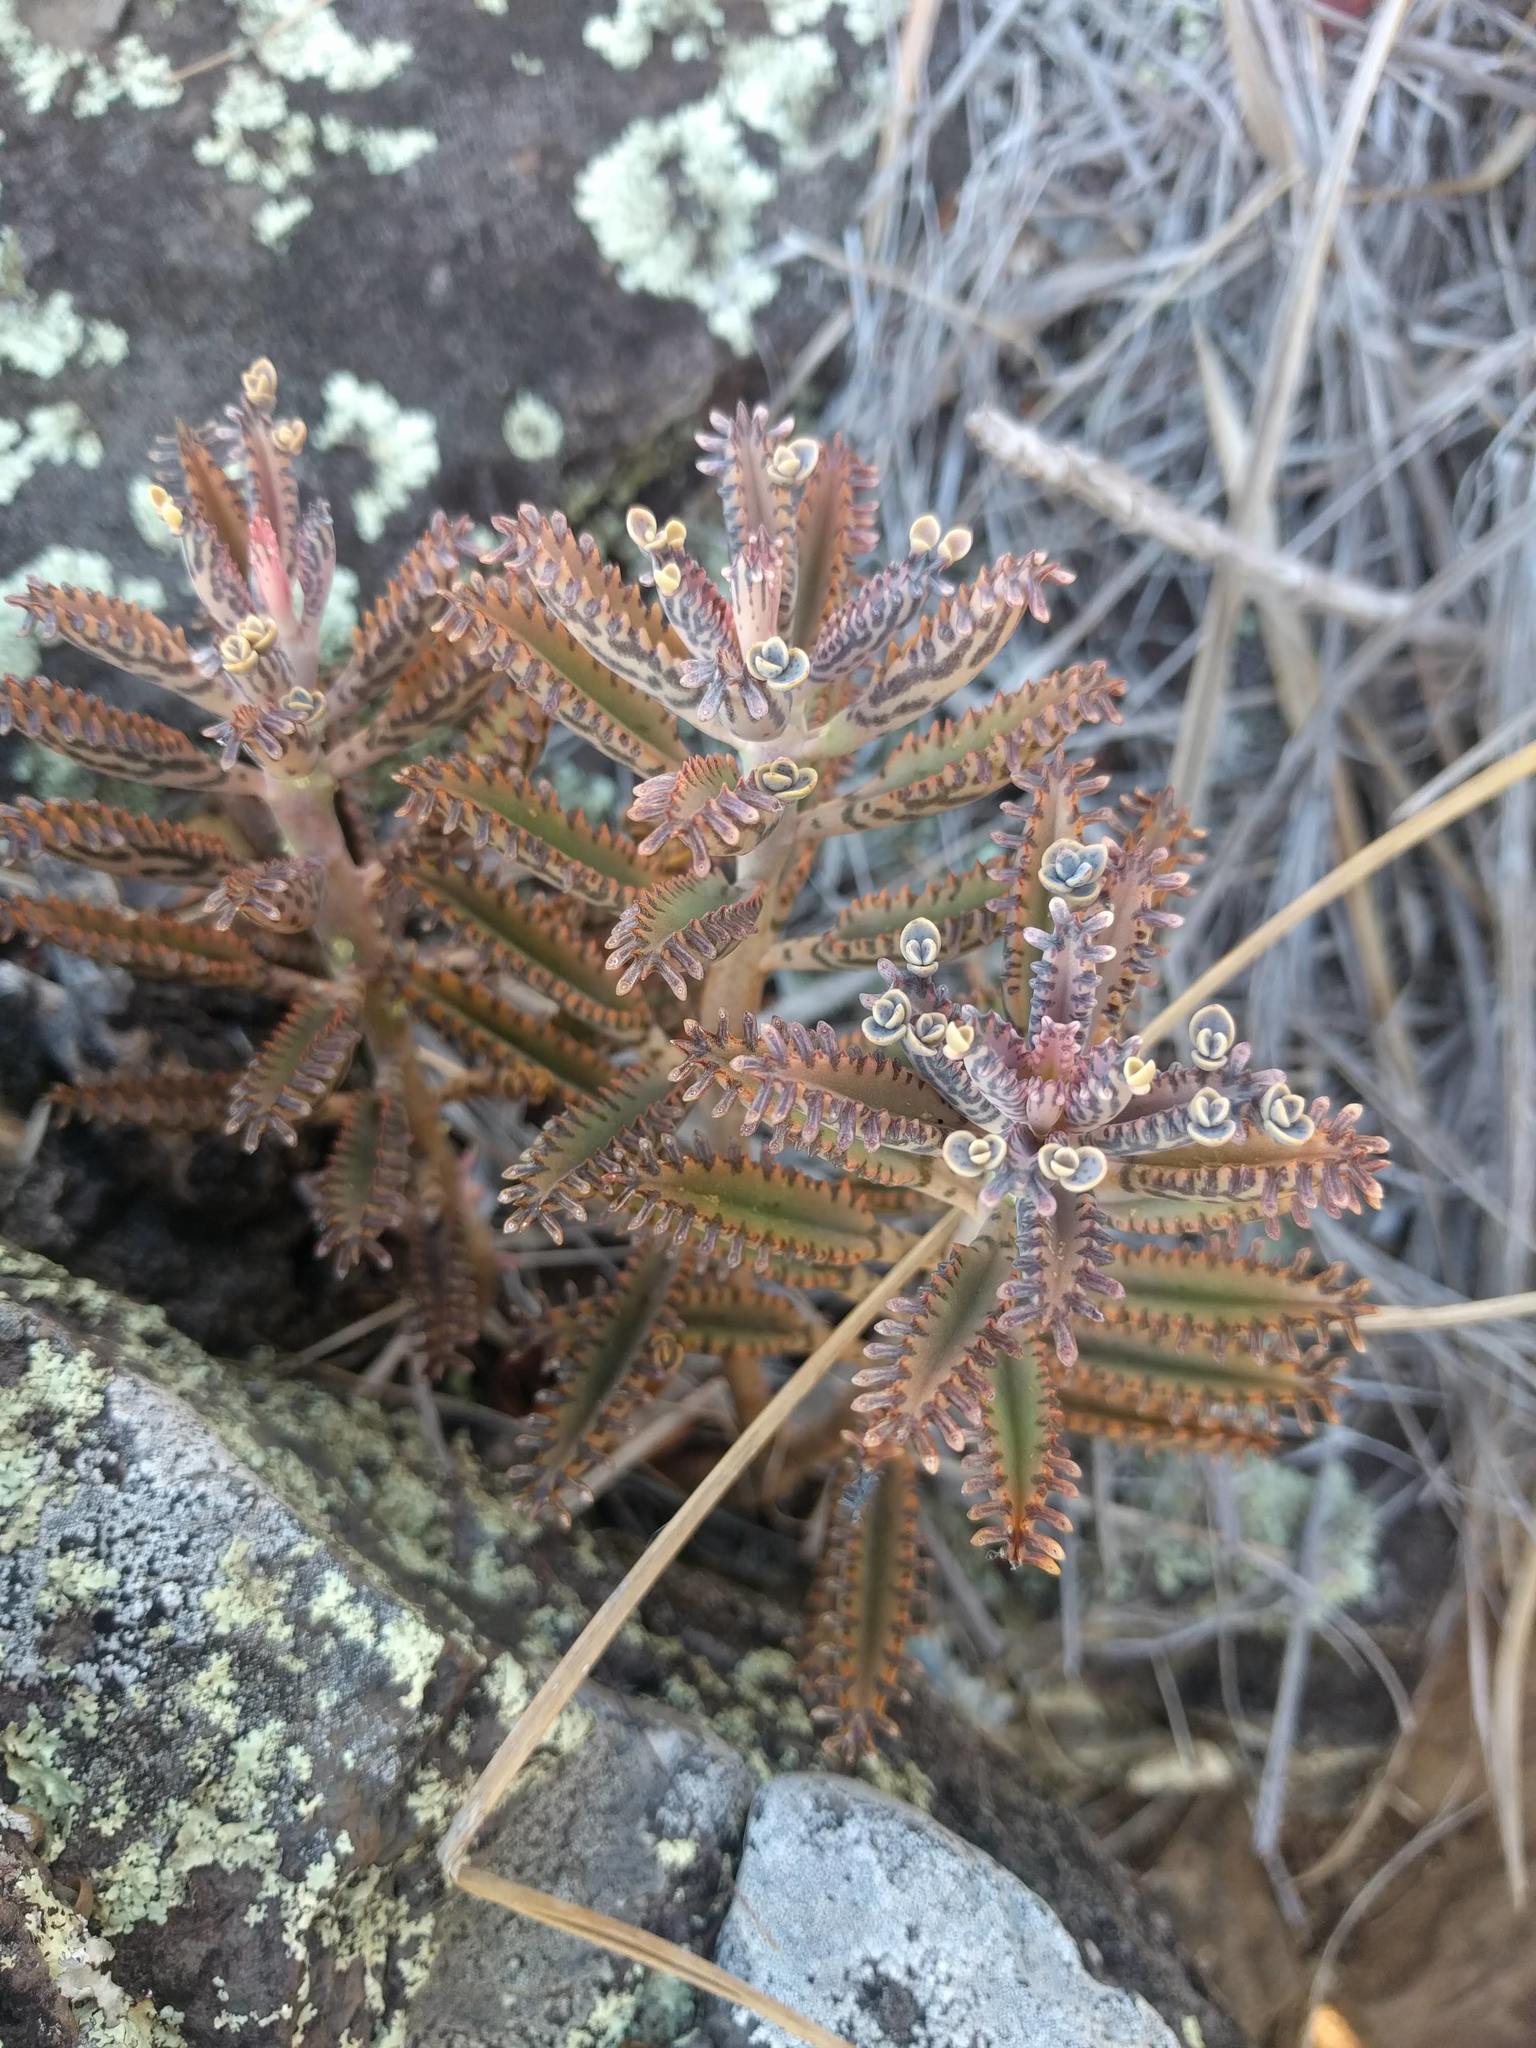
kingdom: Plantae
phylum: Tracheophyta
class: Magnoliopsida
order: Saxifragales
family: Crassulaceae
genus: Kalanchoe
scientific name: Kalanchoe houghtonii
